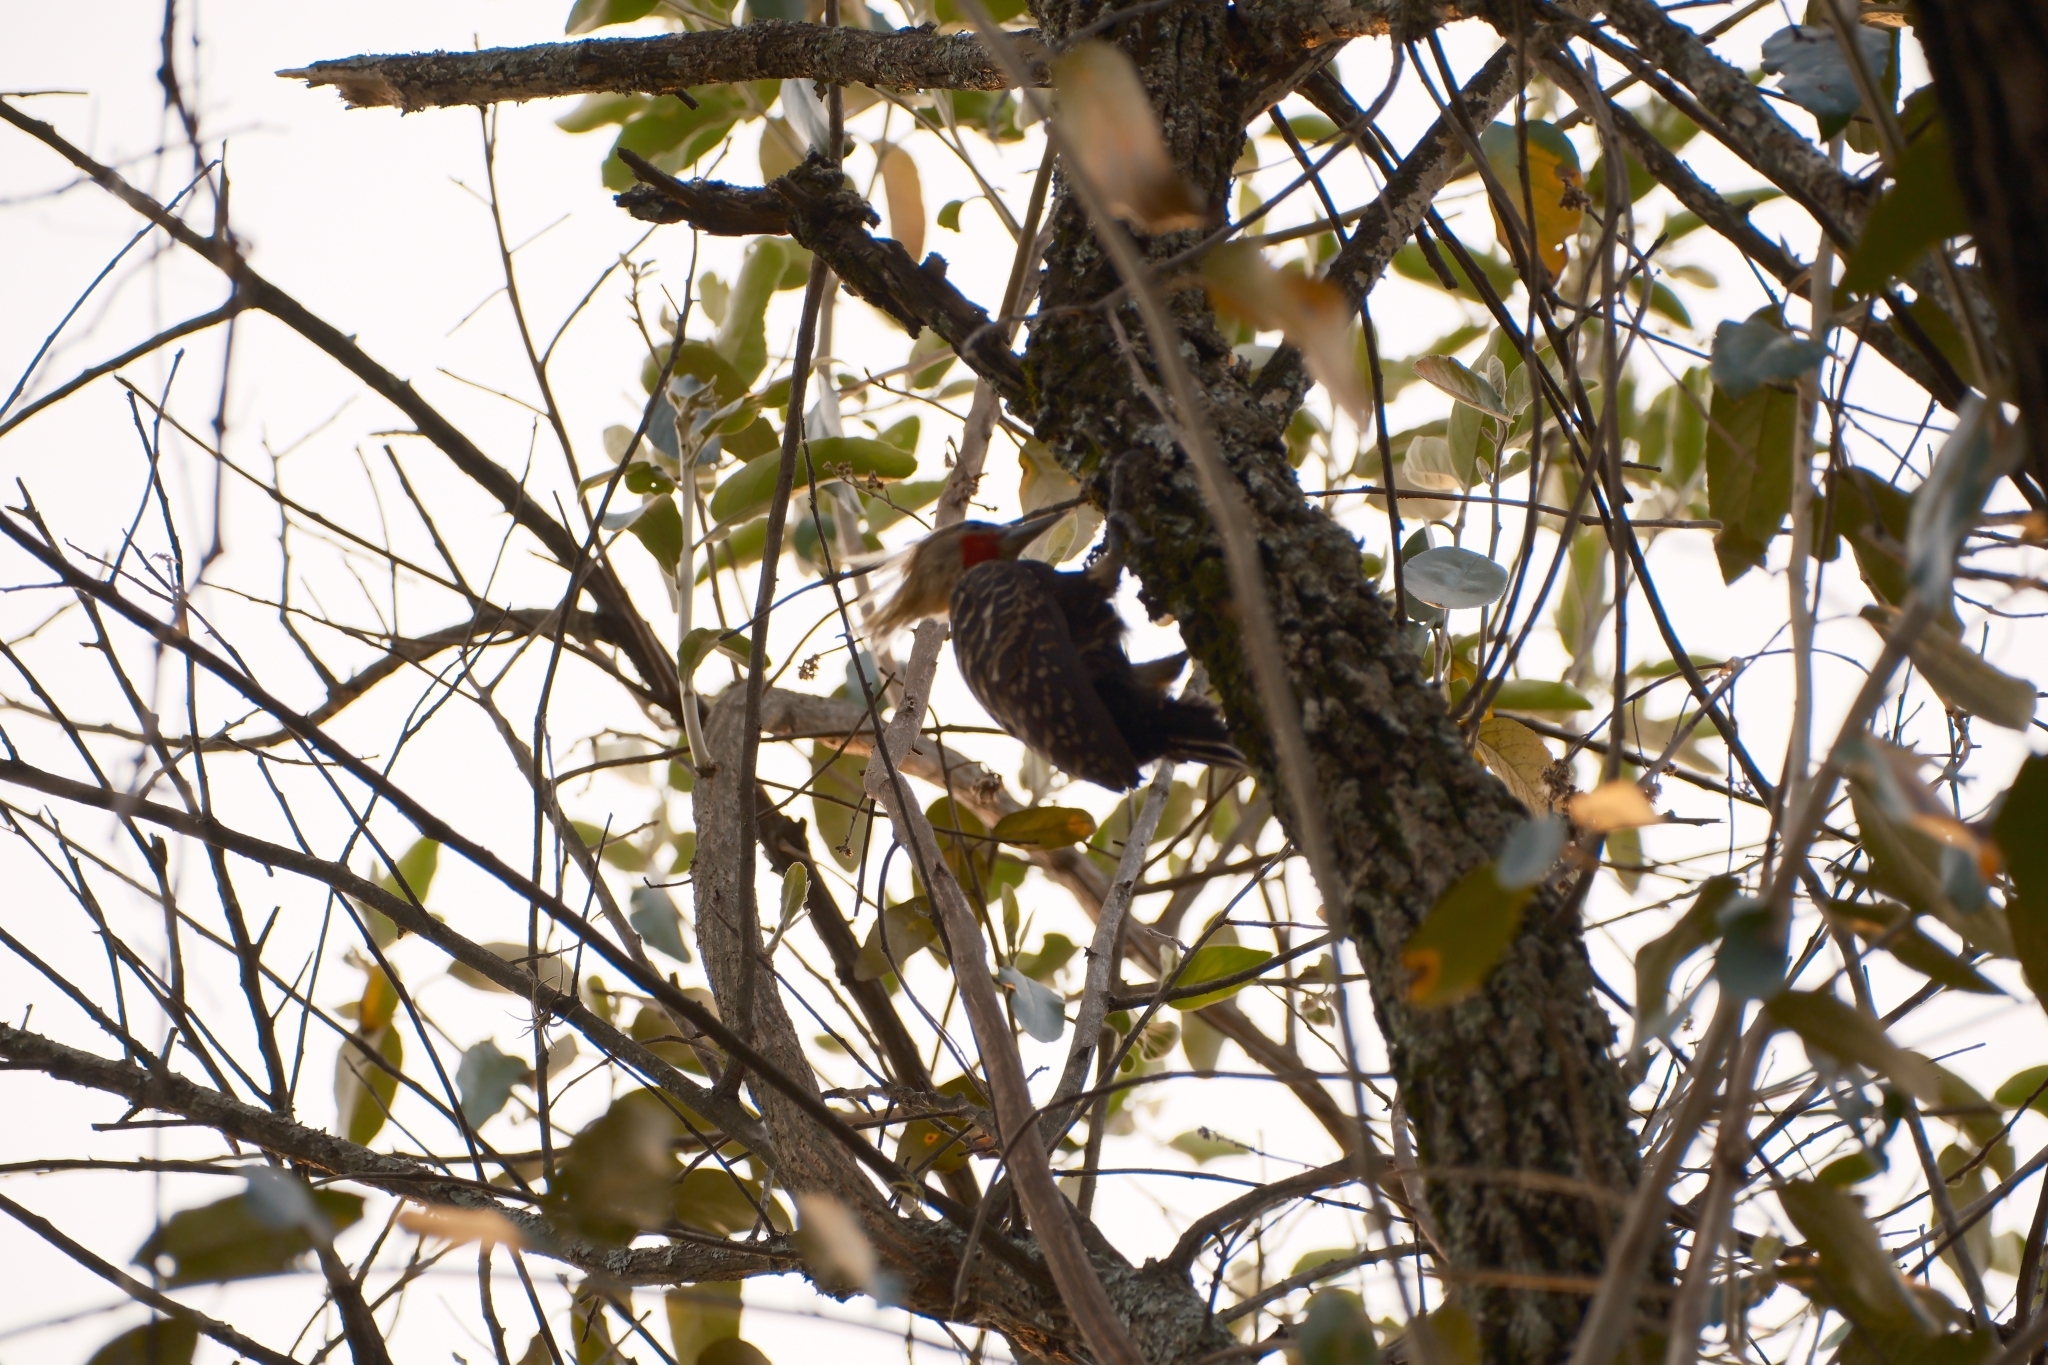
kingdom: Animalia
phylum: Chordata
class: Aves
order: Piciformes
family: Picidae
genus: Celeus
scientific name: Celeus flavescens
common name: Blond-crested woodpecker
